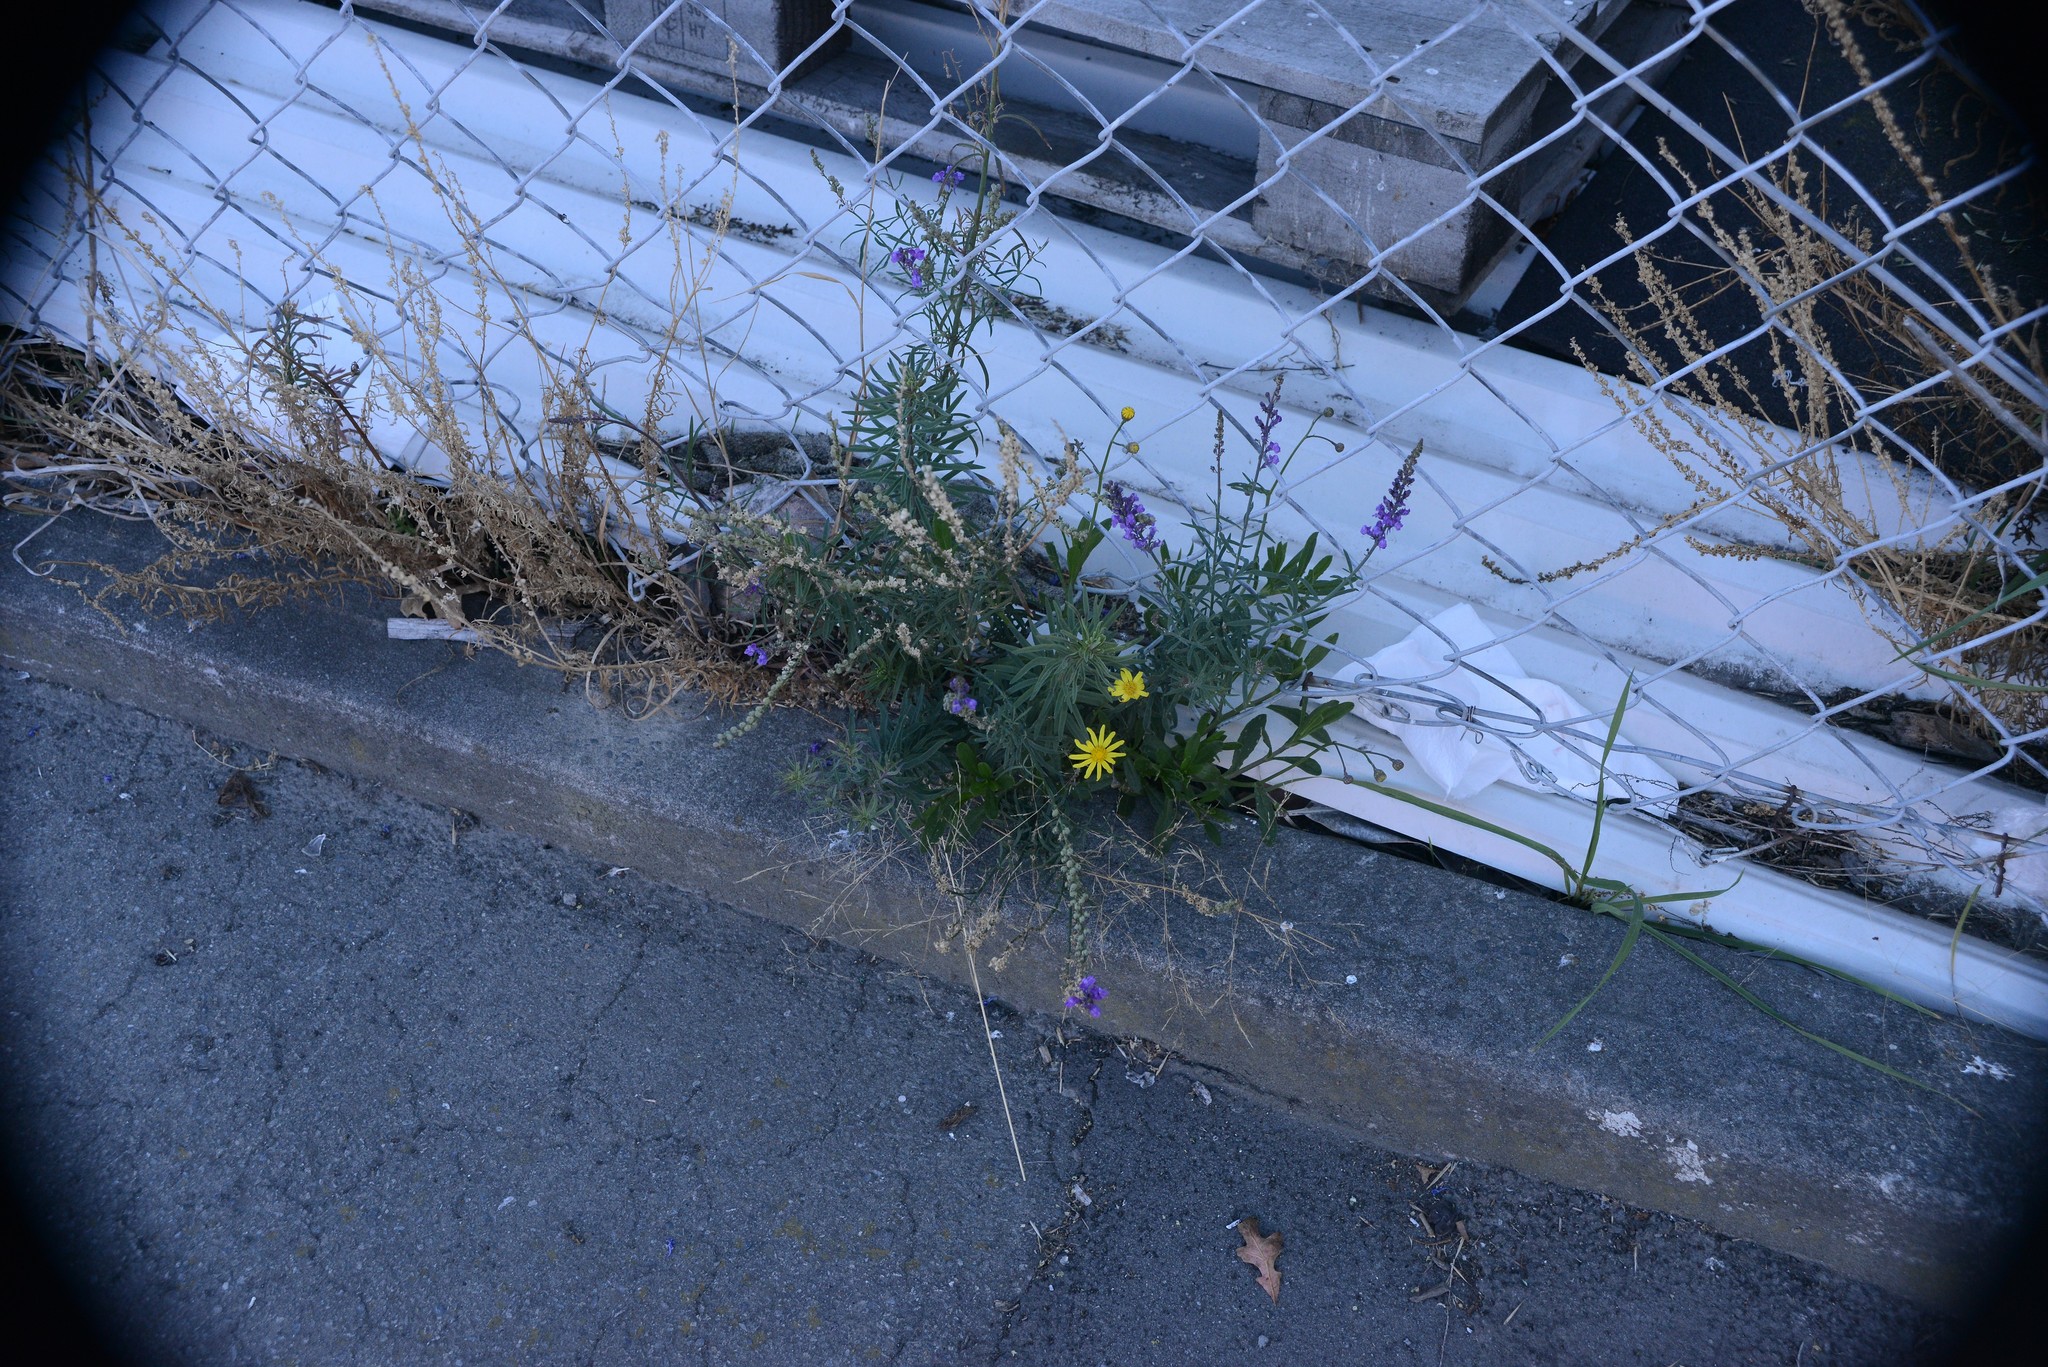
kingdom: Plantae
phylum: Tracheophyta
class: Magnoliopsida
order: Asterales
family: Asteraceae
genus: Senecio
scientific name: Senecio skirrhodon
